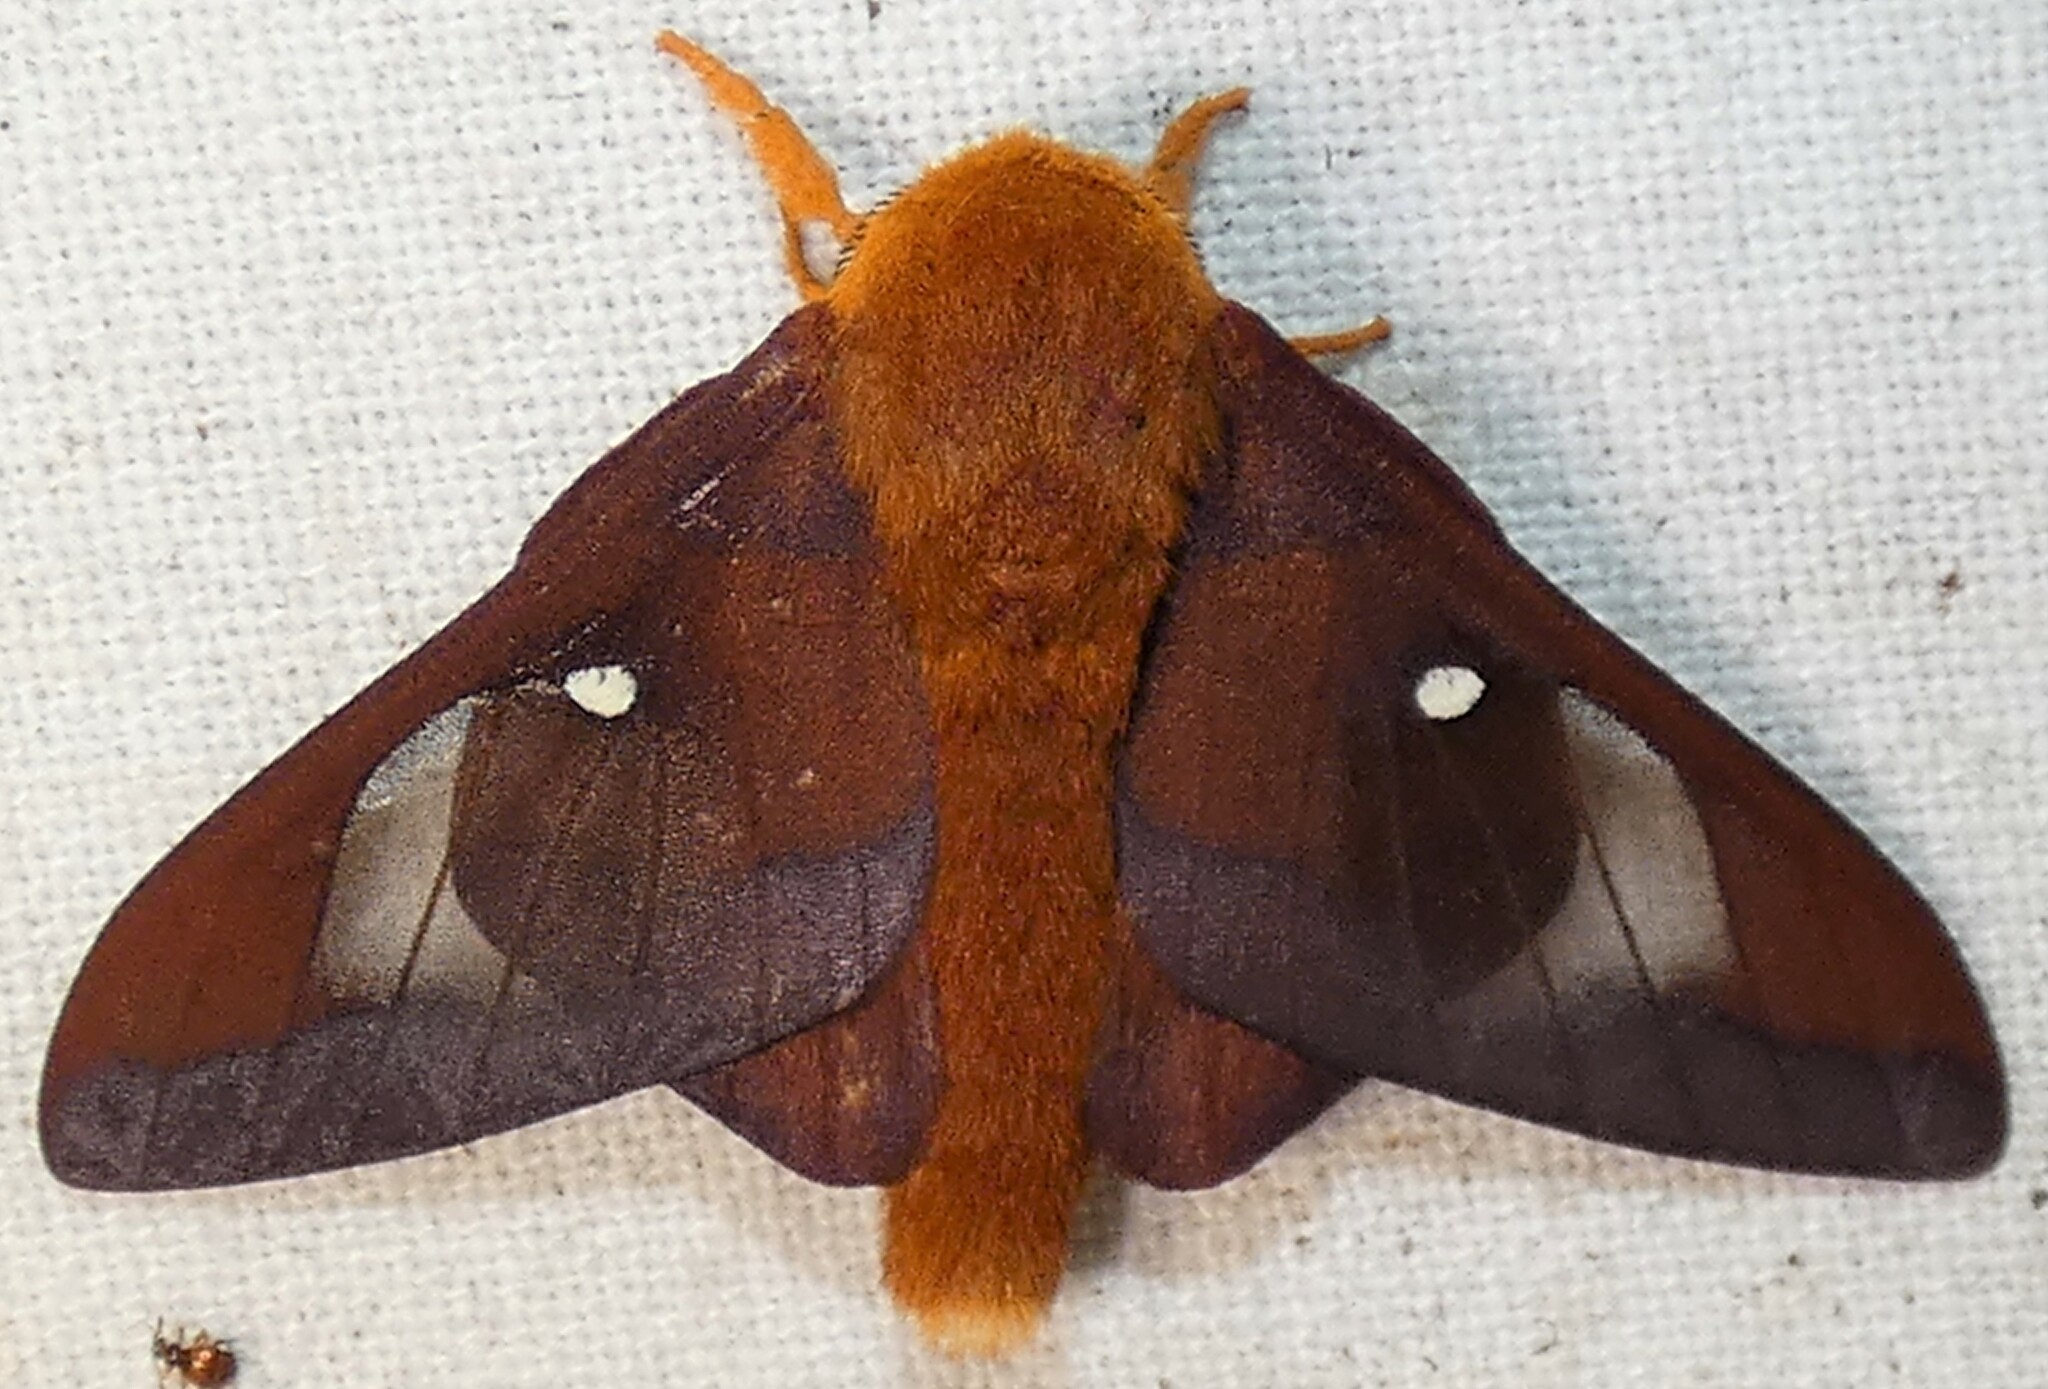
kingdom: Animalia
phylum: Arthropoda
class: Insecta
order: Lepidoptera
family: Saturniidae
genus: Anisota
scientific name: Anisota virginiensis
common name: Pink striped oakworm moth
